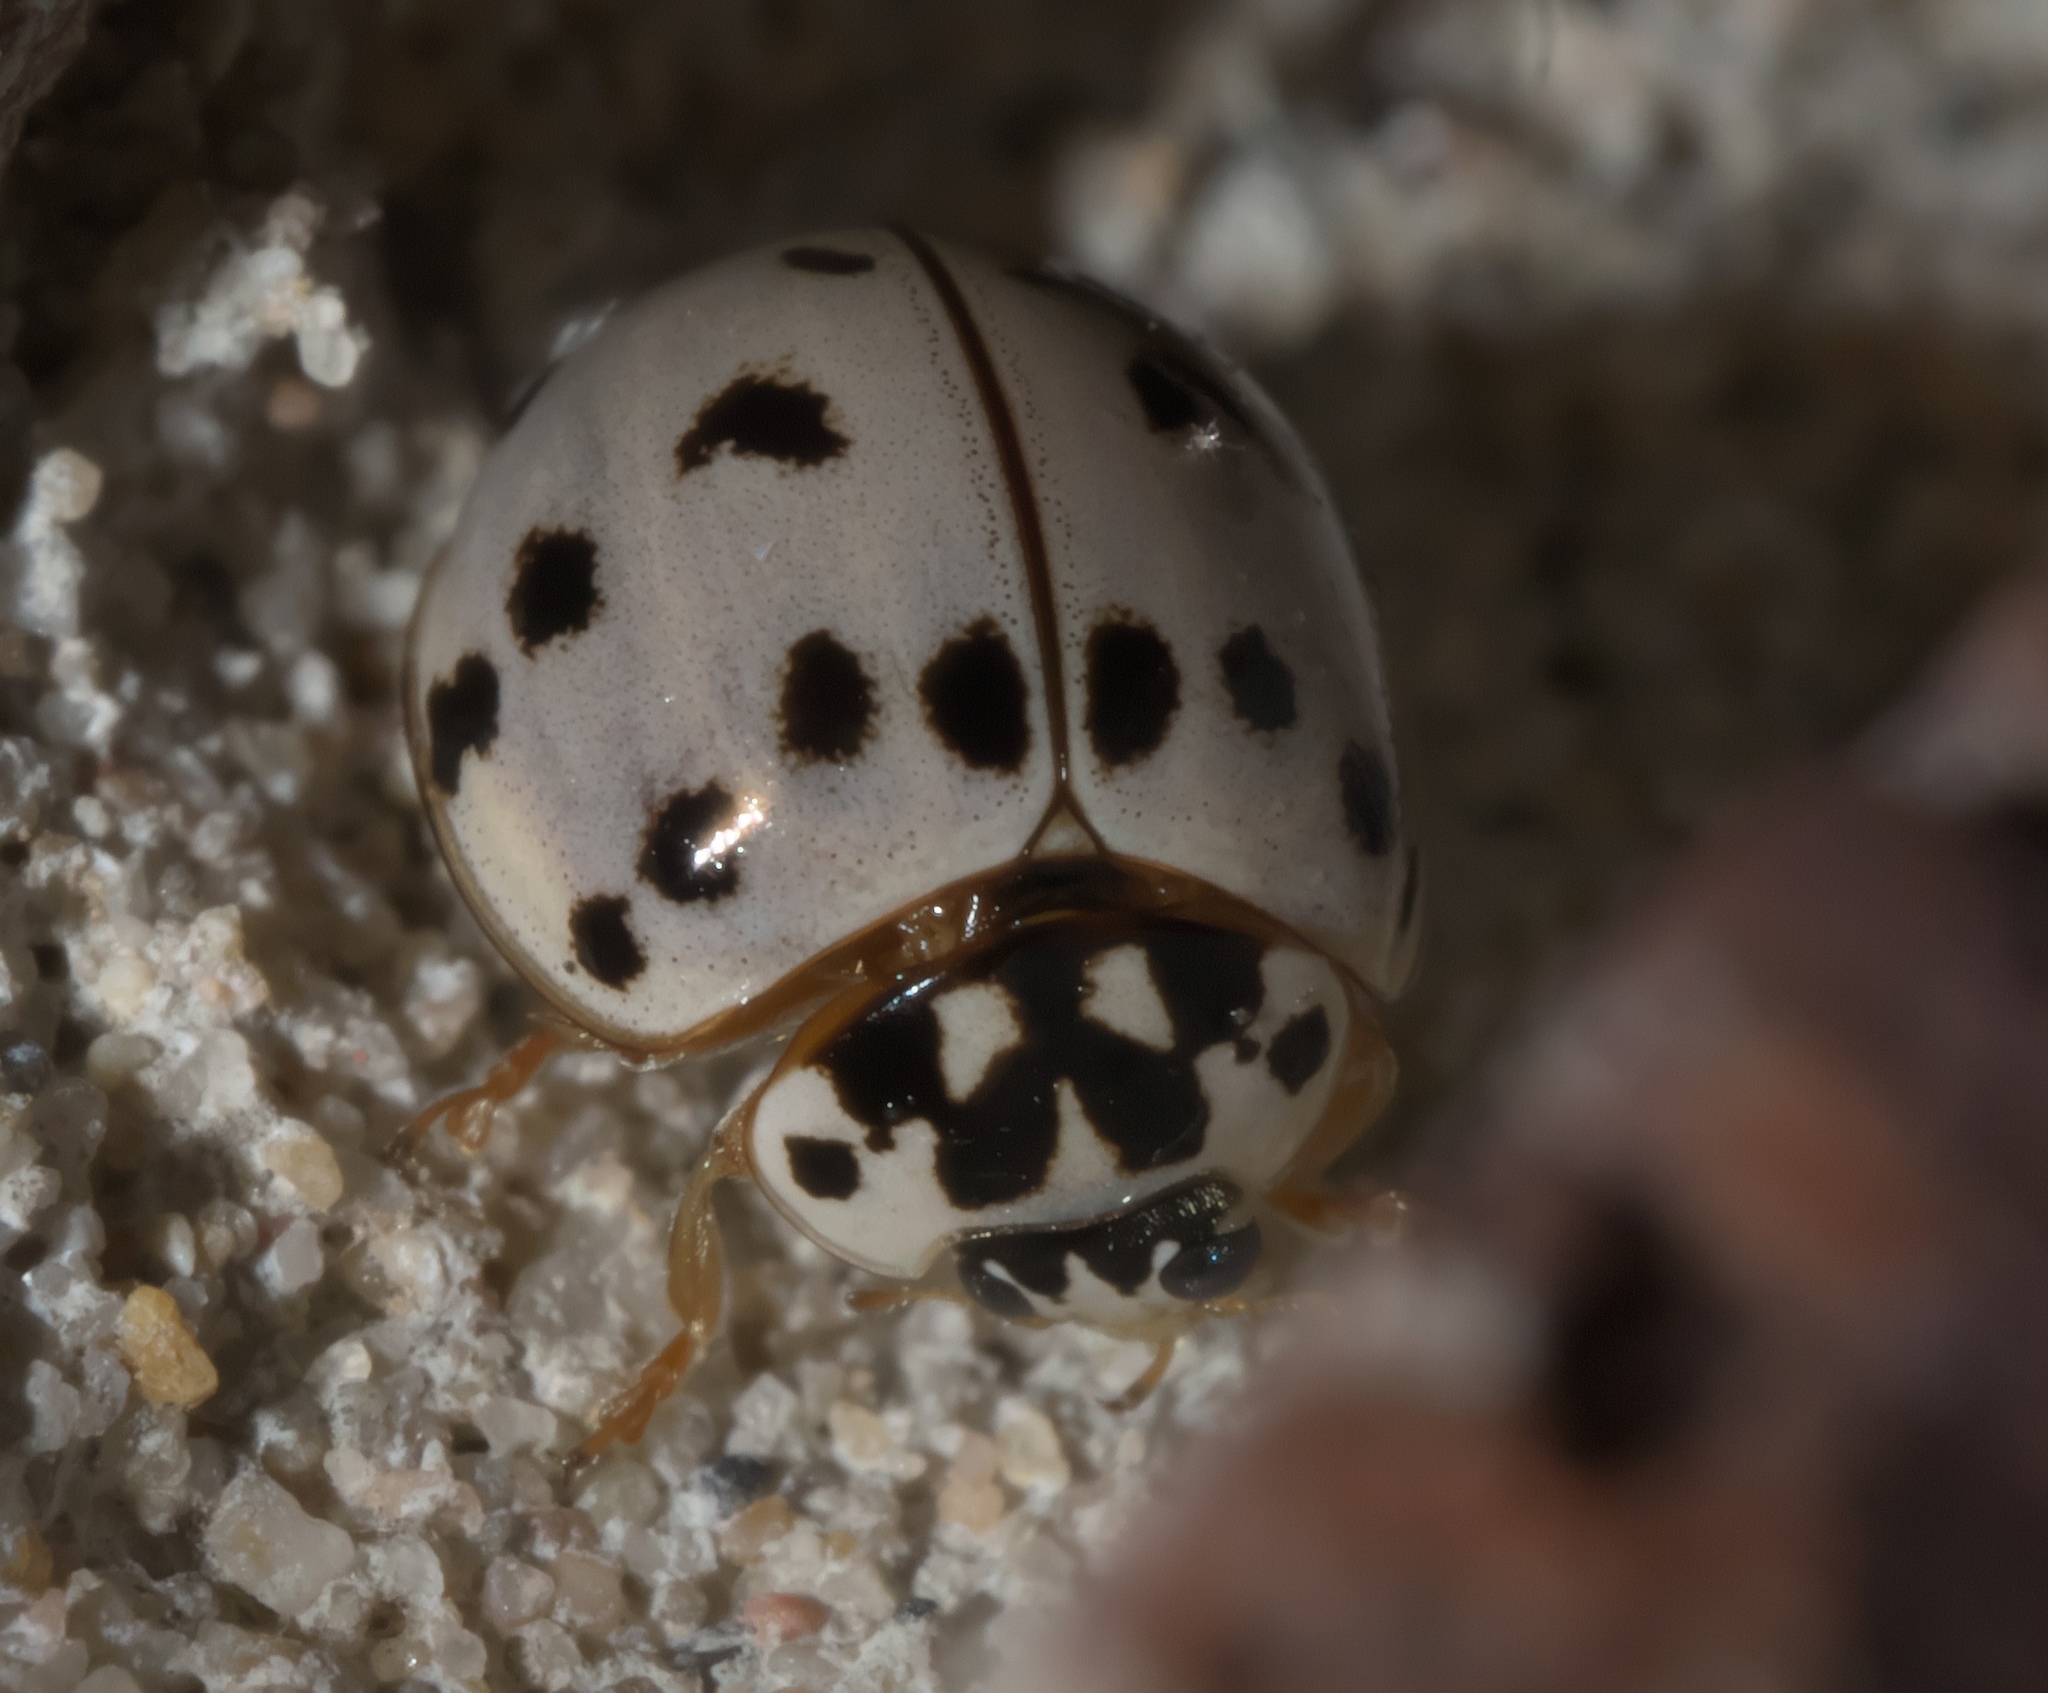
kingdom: Animalia
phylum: Arthropoda
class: Insecta
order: Coleoptera
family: Coccinellidae
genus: Olla
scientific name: Olla v-nigrum
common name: Ashy gray lady beetle
